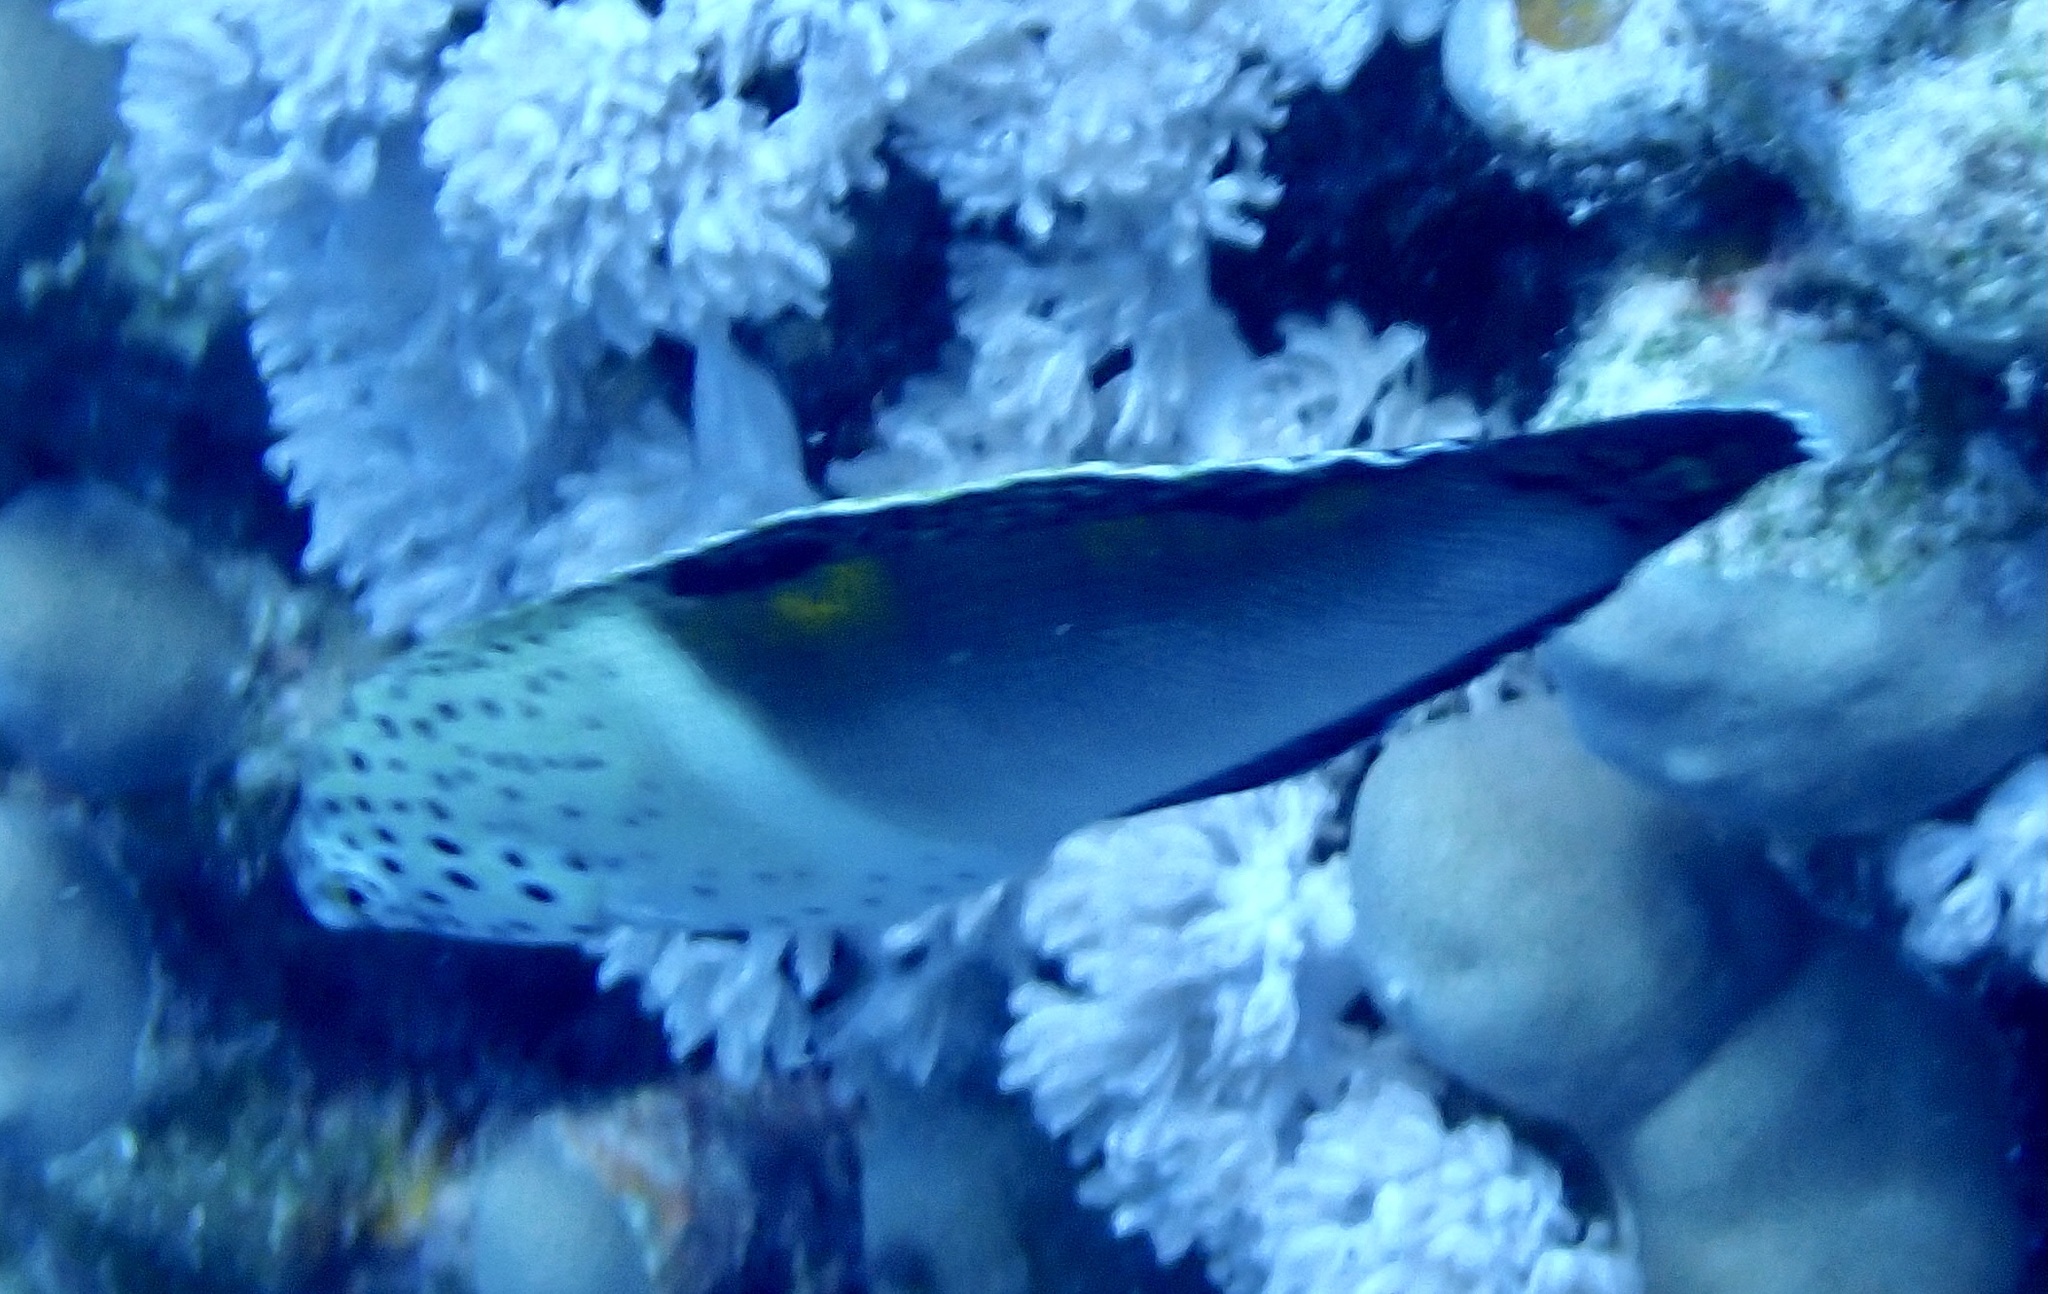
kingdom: Animalia
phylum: Chordata
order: Perciformes
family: Labridae
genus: Coris
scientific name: Coris aygula
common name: Clown coris
